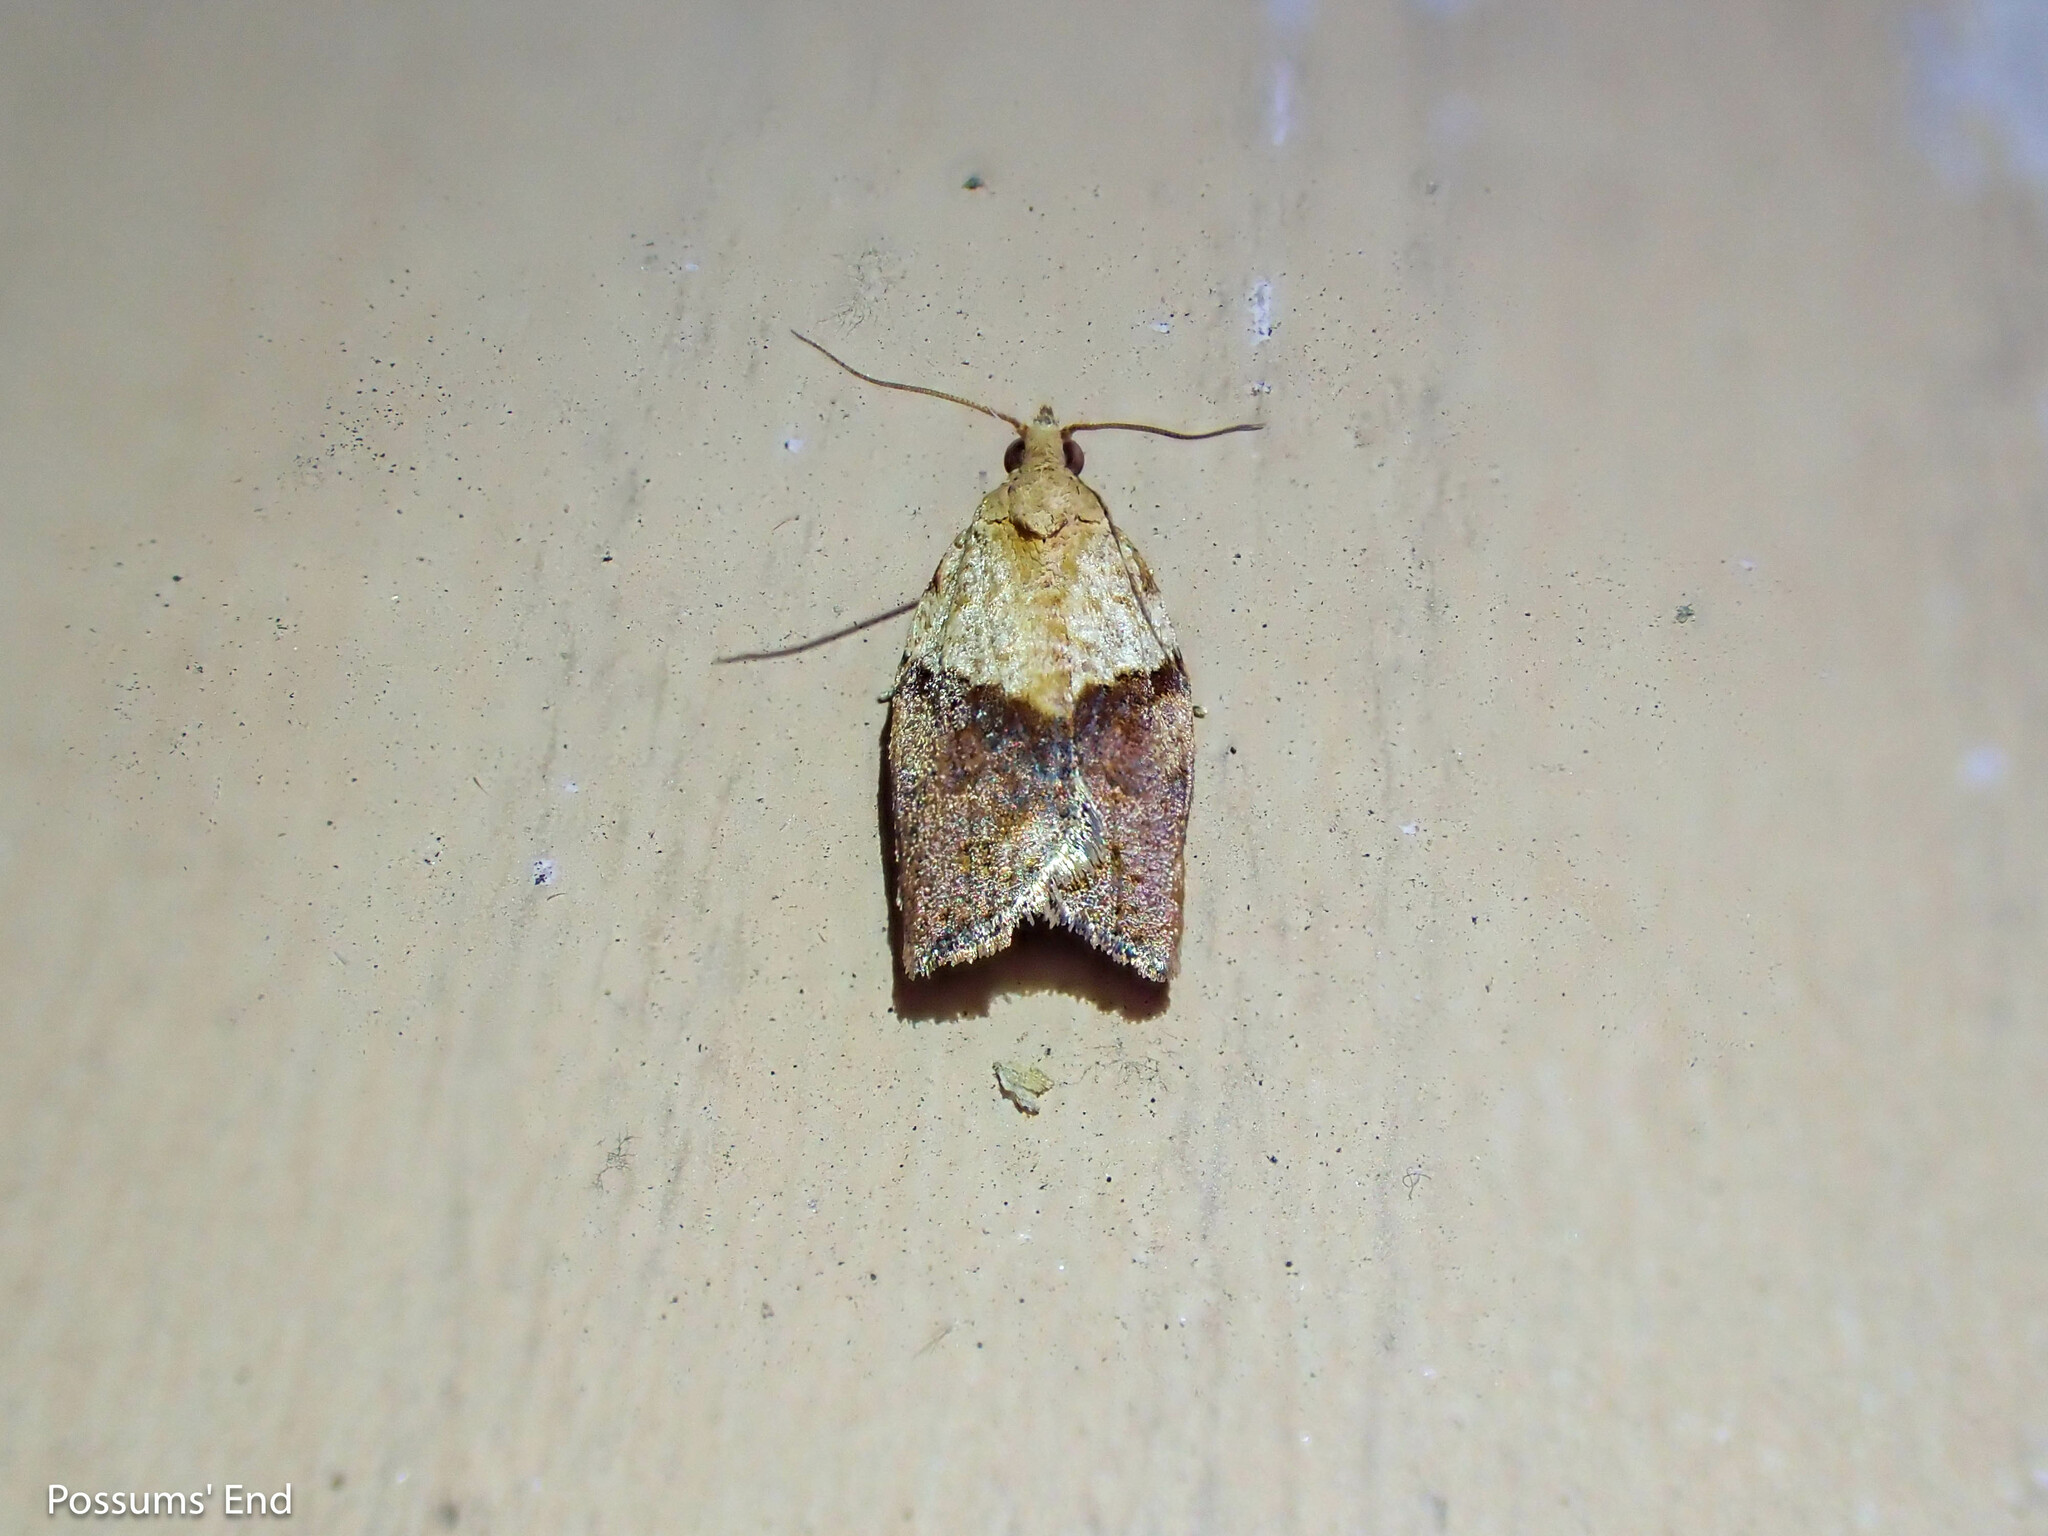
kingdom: Animalia
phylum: Arthropoda
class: Insecta
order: Lepidoptera
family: Tortricidae
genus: Epiphyas
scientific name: Epiphyas postvittana
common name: Light brown apple moth
